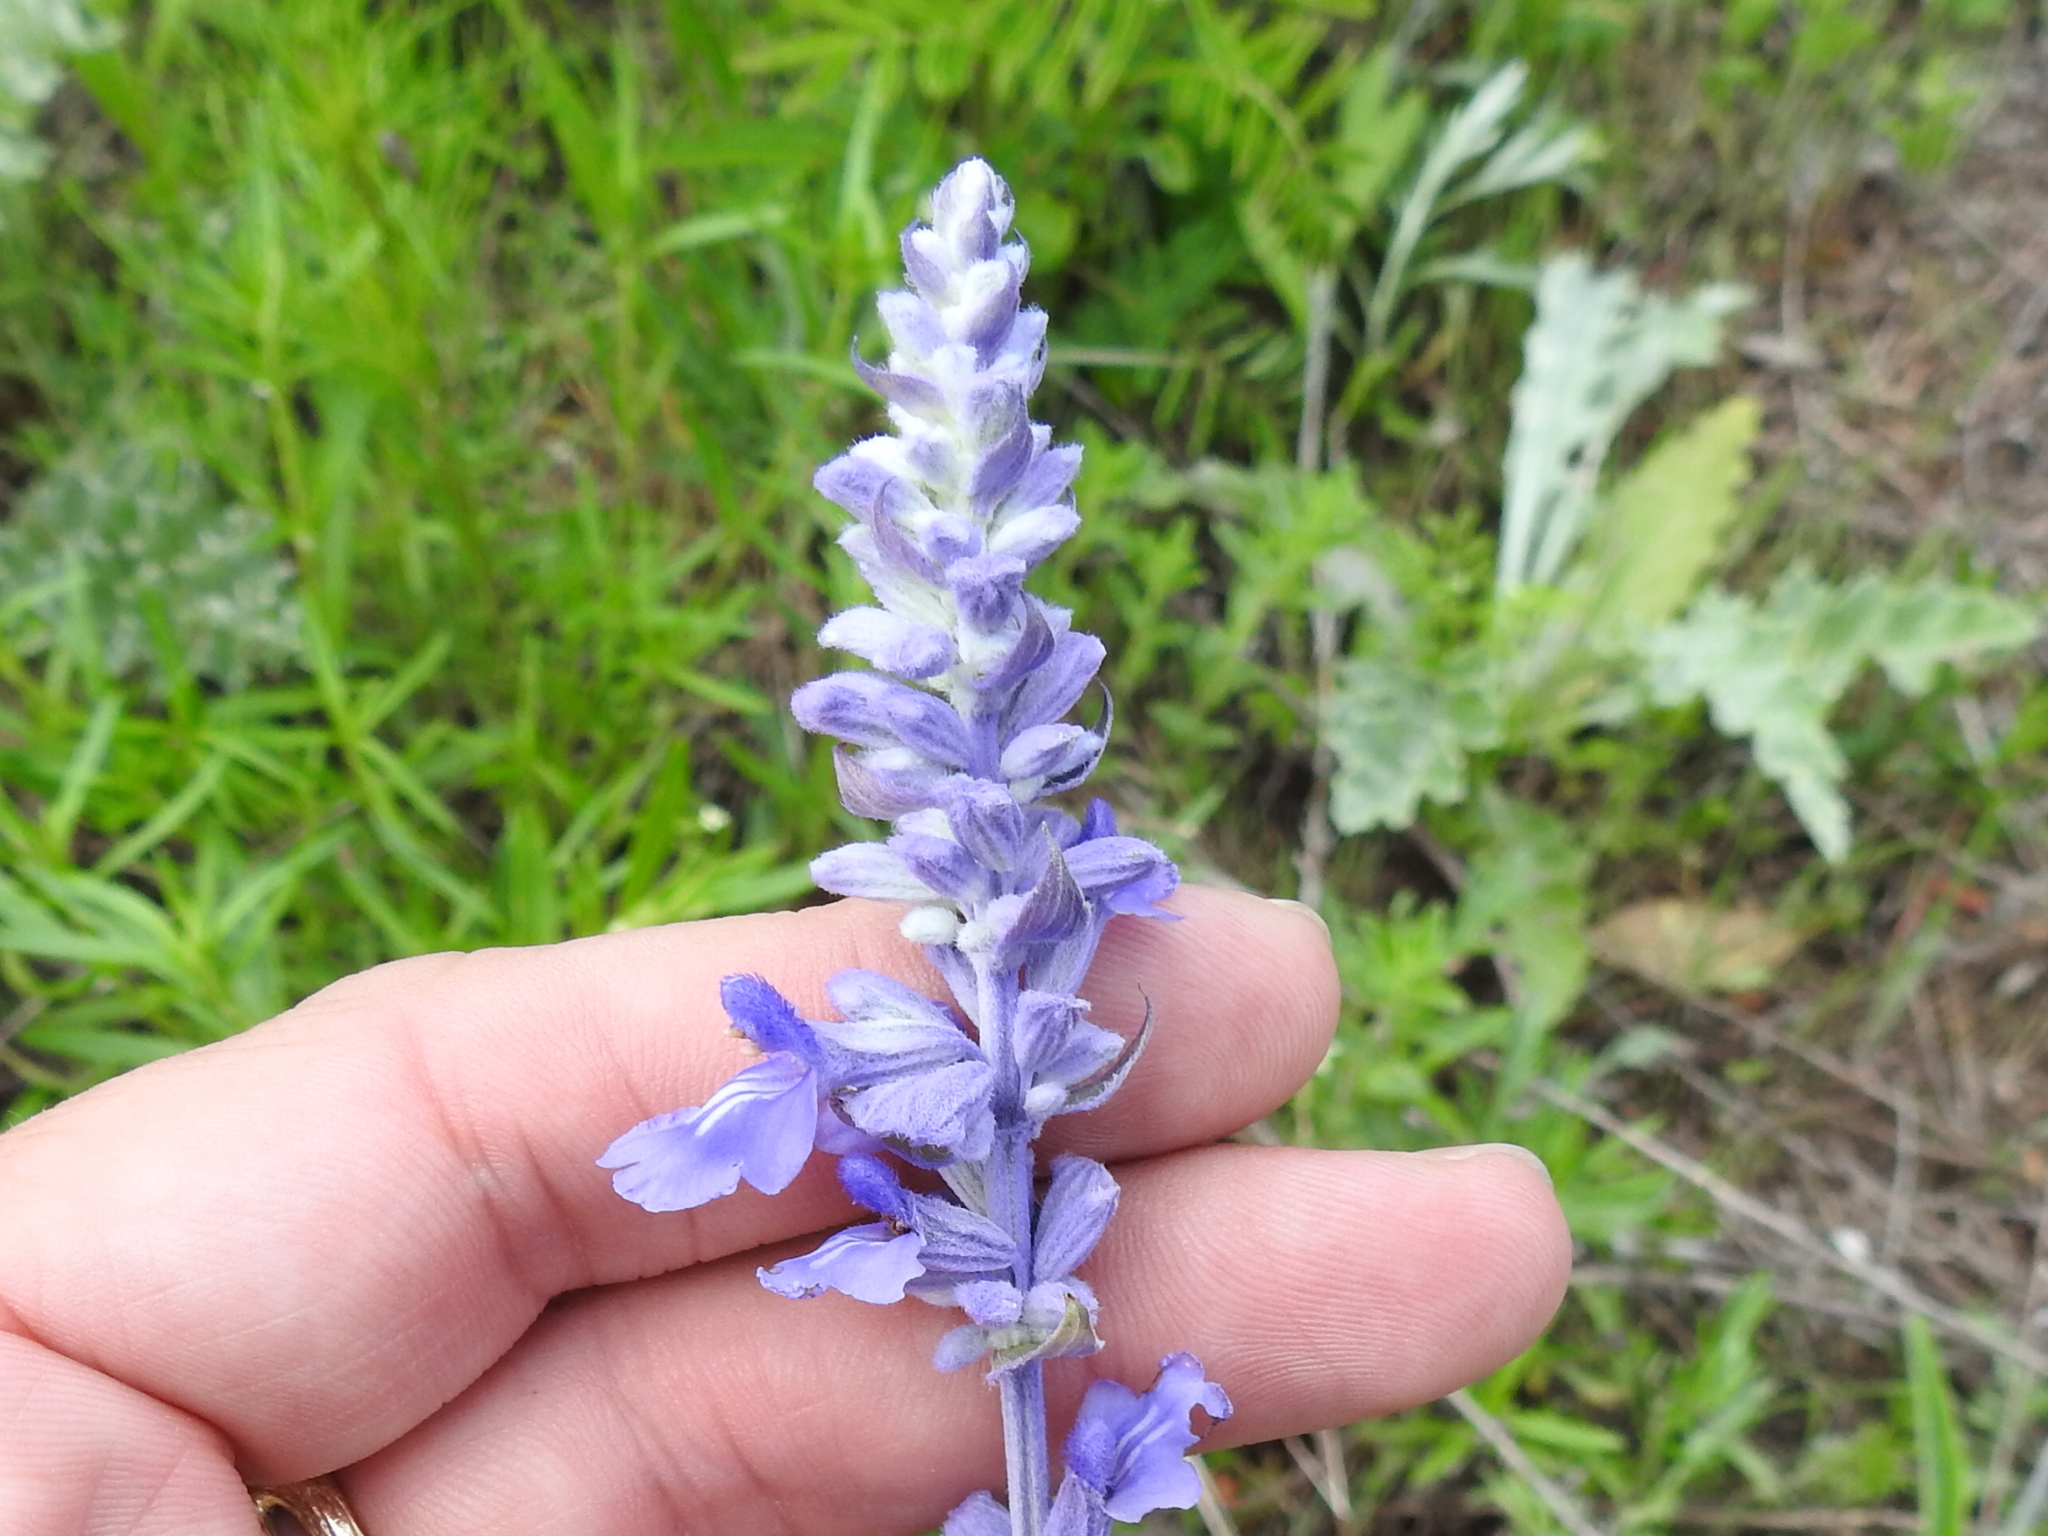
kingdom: Plantae
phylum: Tracheophyta
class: Magnoliopsida
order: Lamiales
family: Lamiaceae
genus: Salvia
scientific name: Salvia farinacea
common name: Mealy sage
